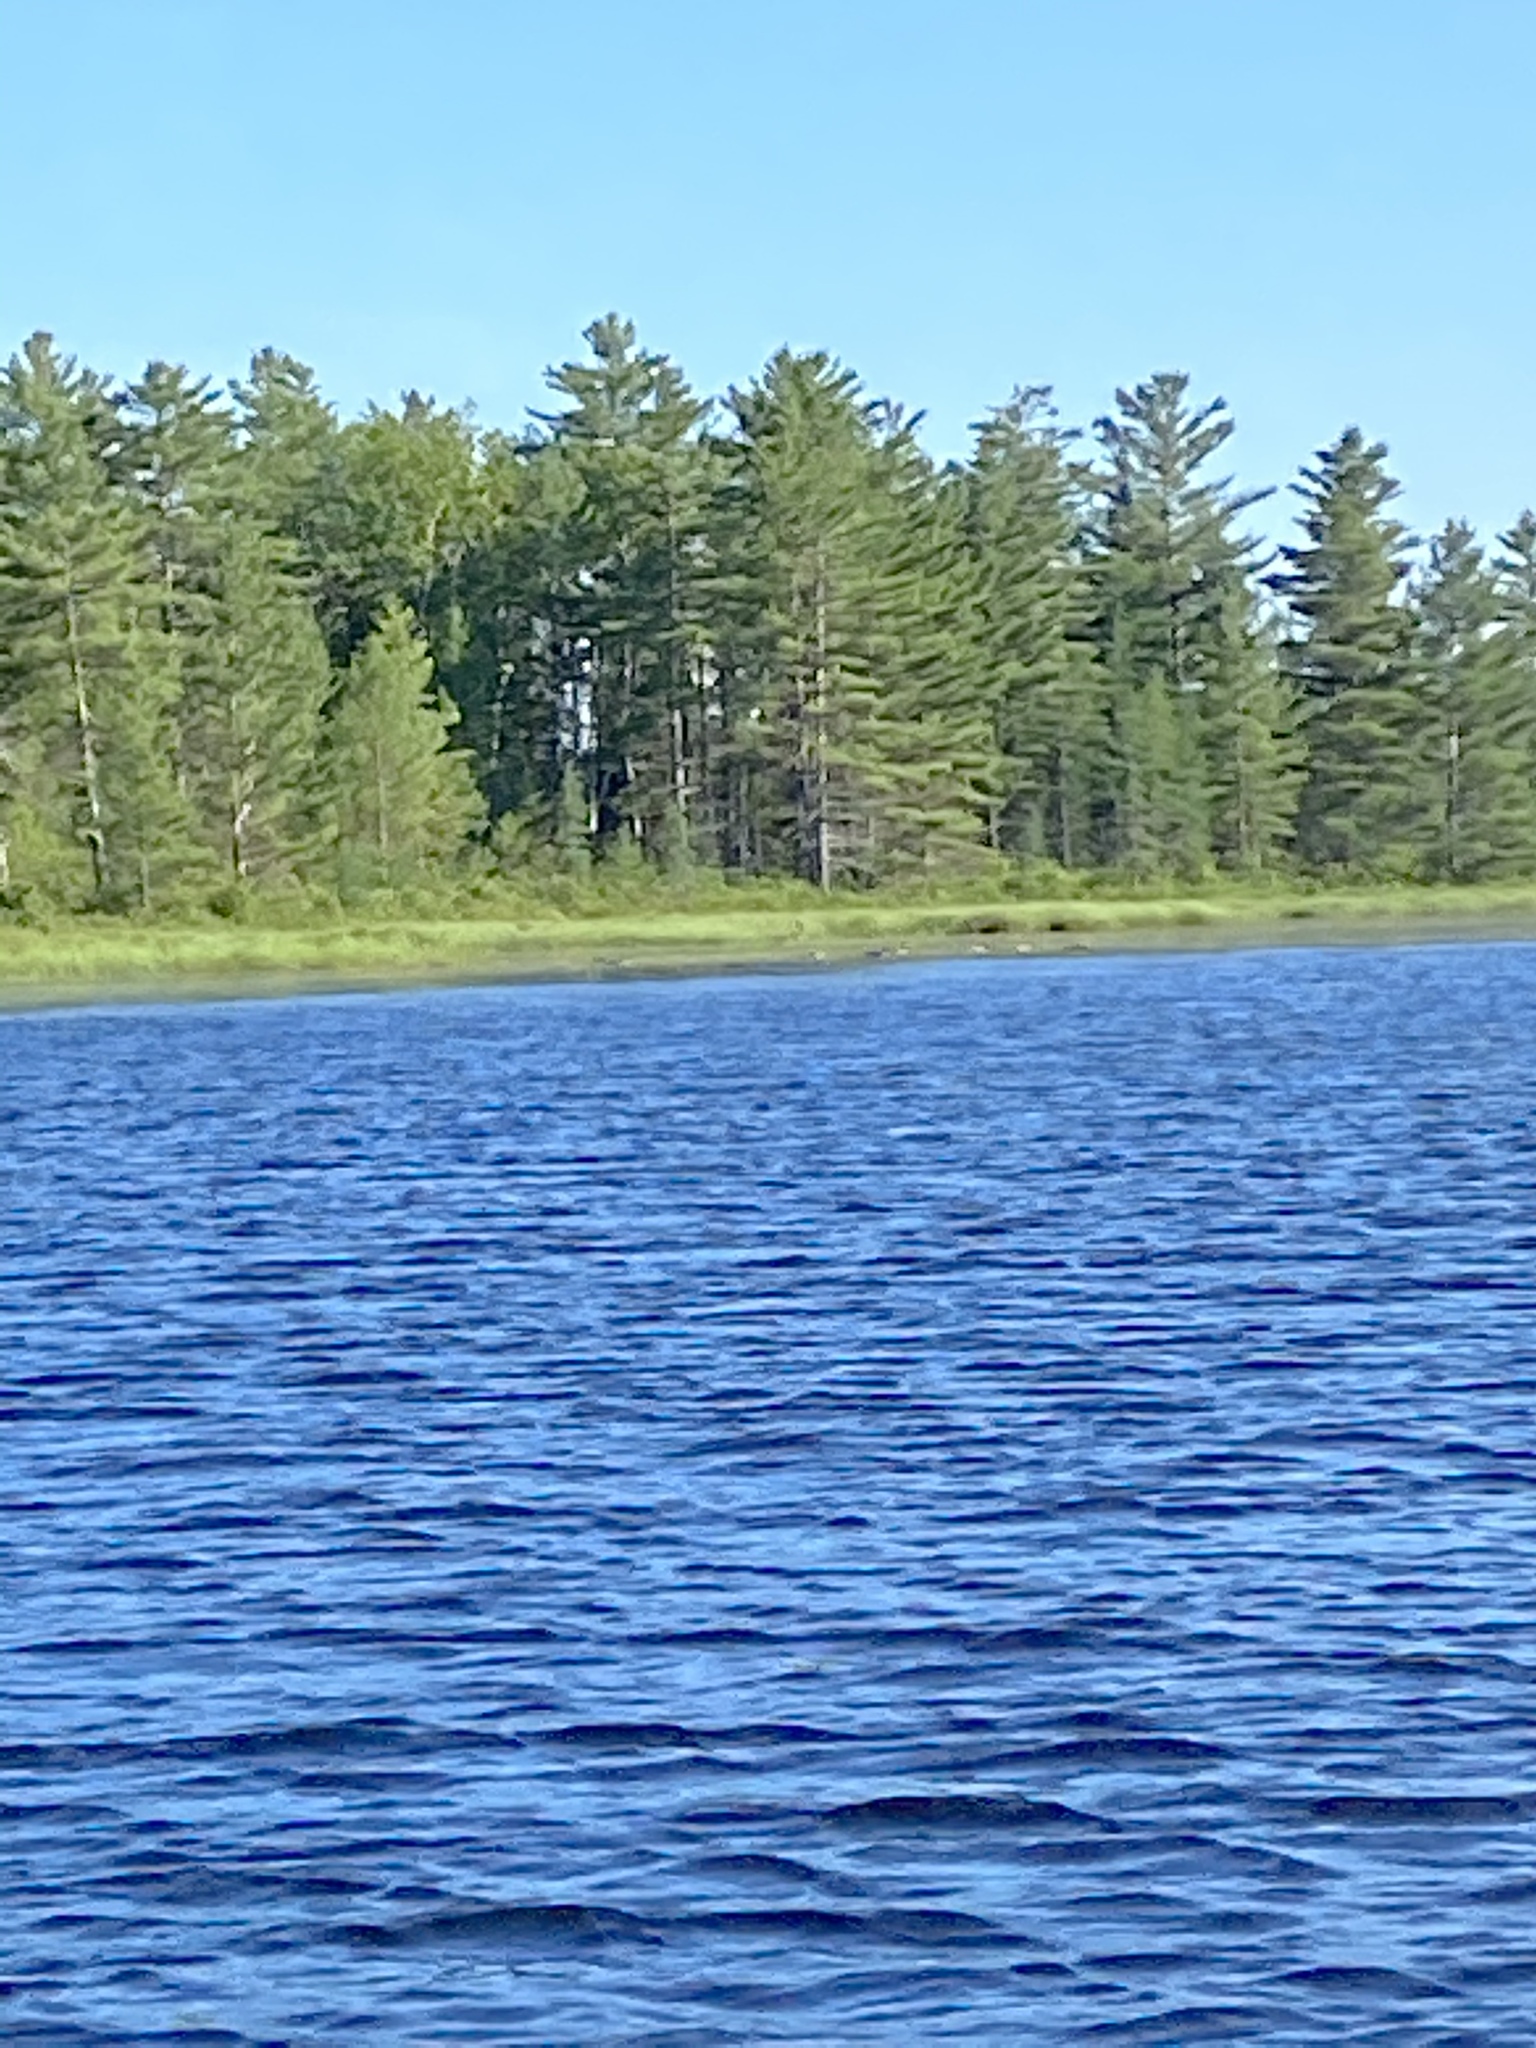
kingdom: Animalia
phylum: Chordata
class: Aves
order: Anseriformes
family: Anatidae
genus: Branta
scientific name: Branta canadensis
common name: Canada goose
